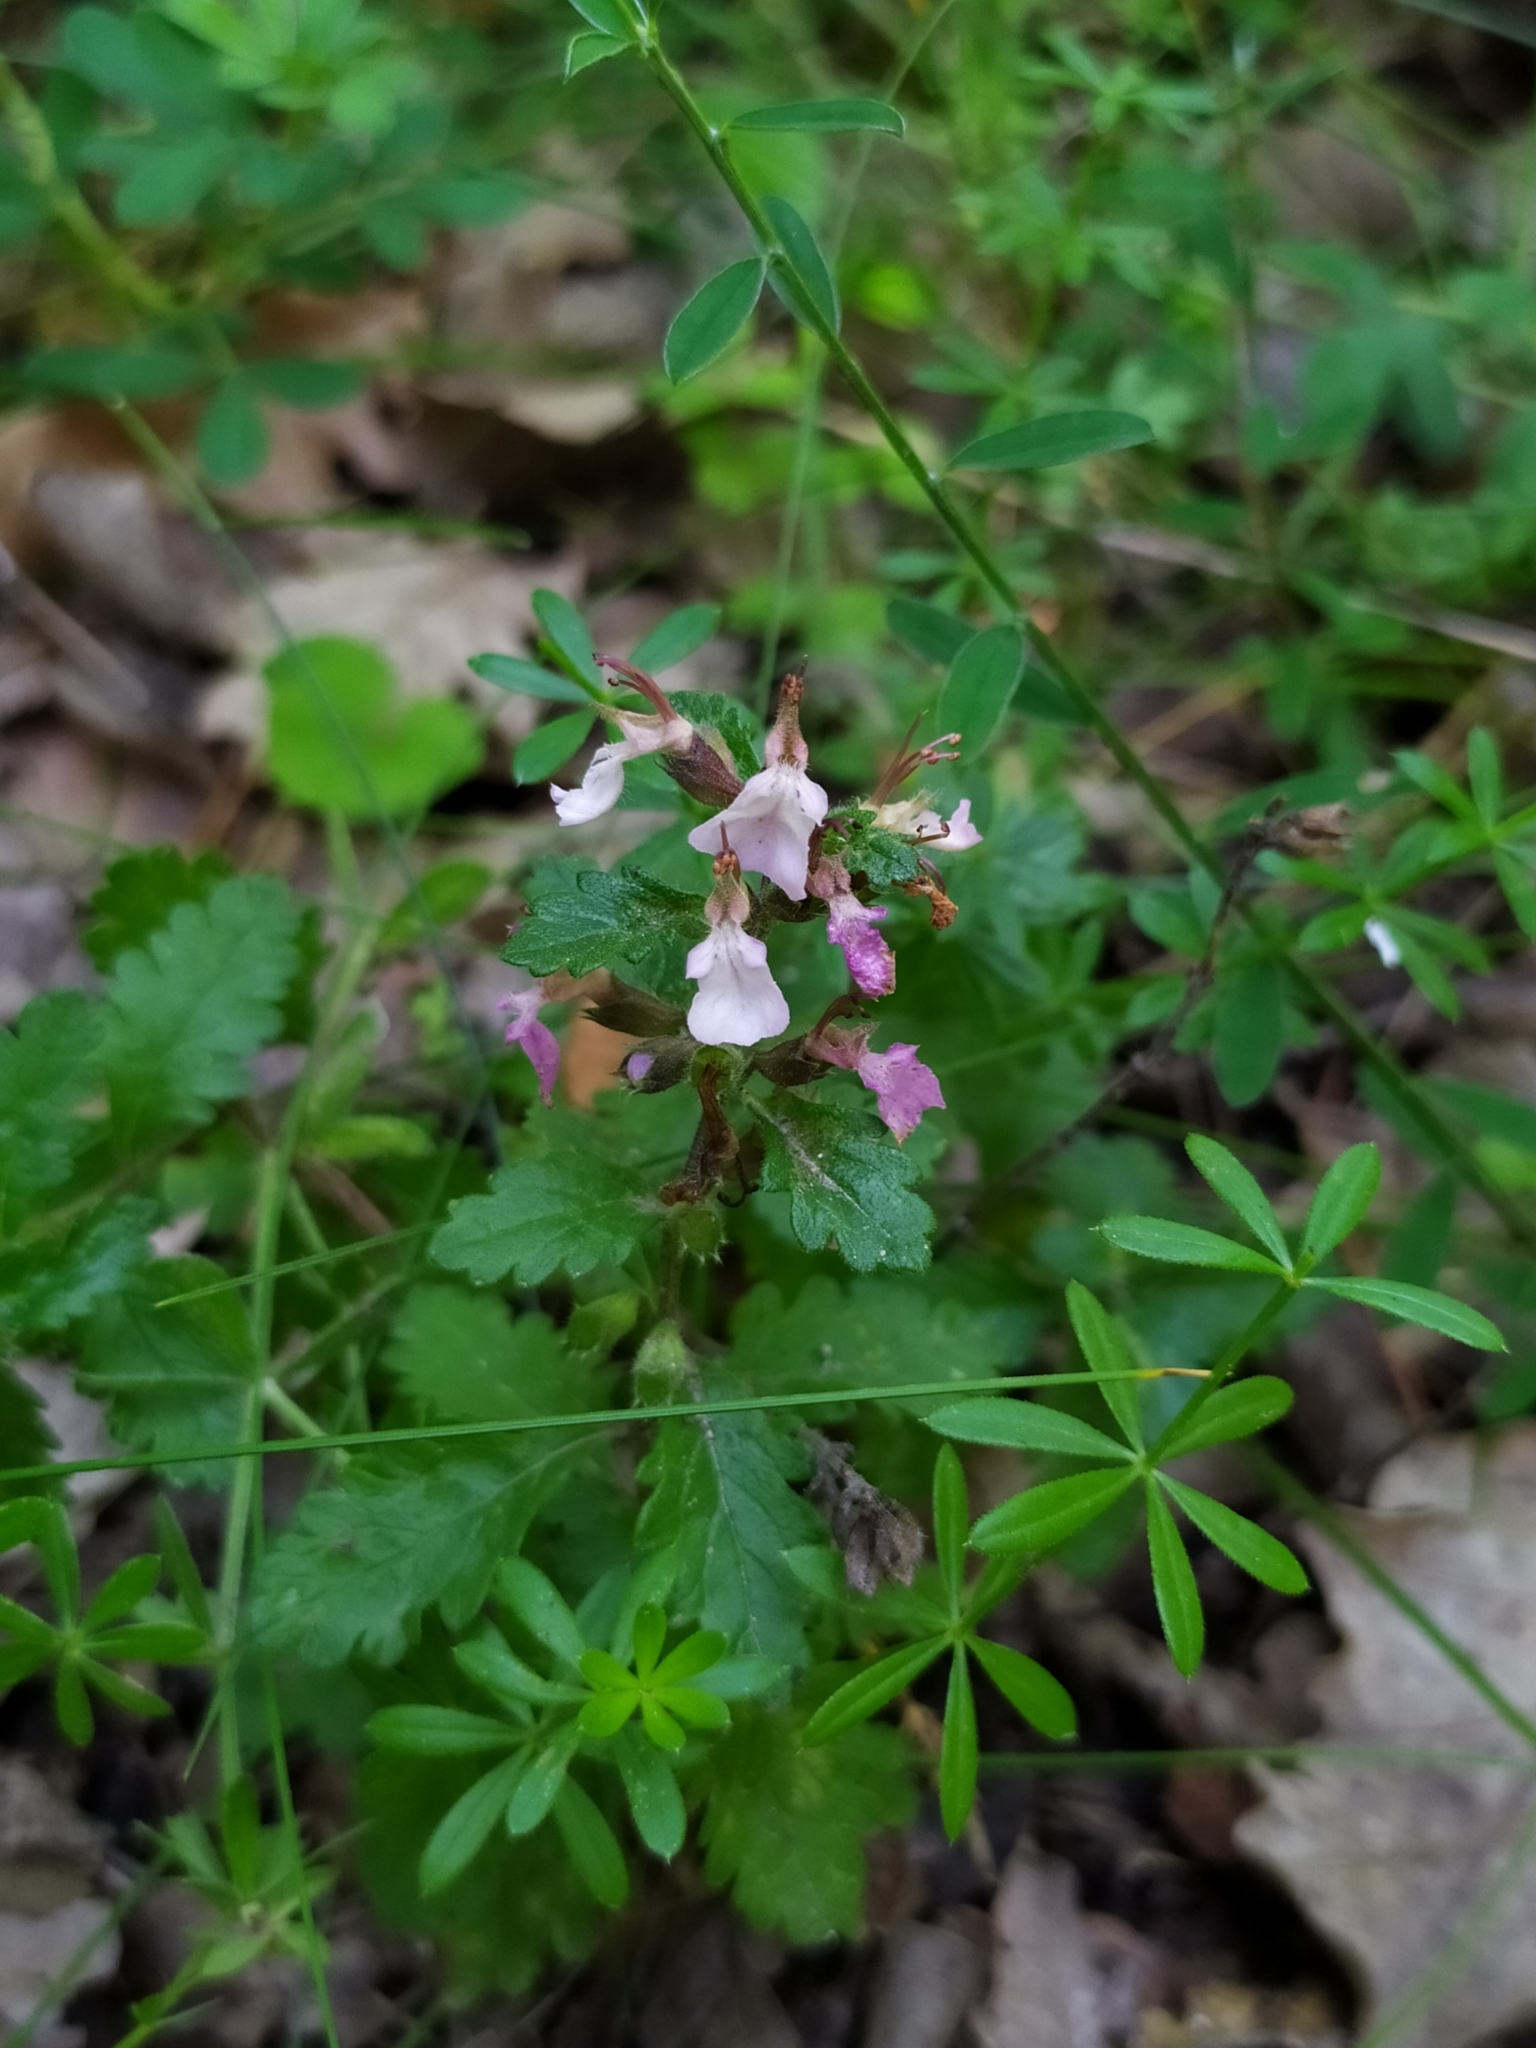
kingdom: Plantae
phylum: Tracheophyta
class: Magnoliopsida
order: Lamiales
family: Lamiaceae
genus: Teucrium
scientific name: Teucrium chamaedrys
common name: Wall germander
